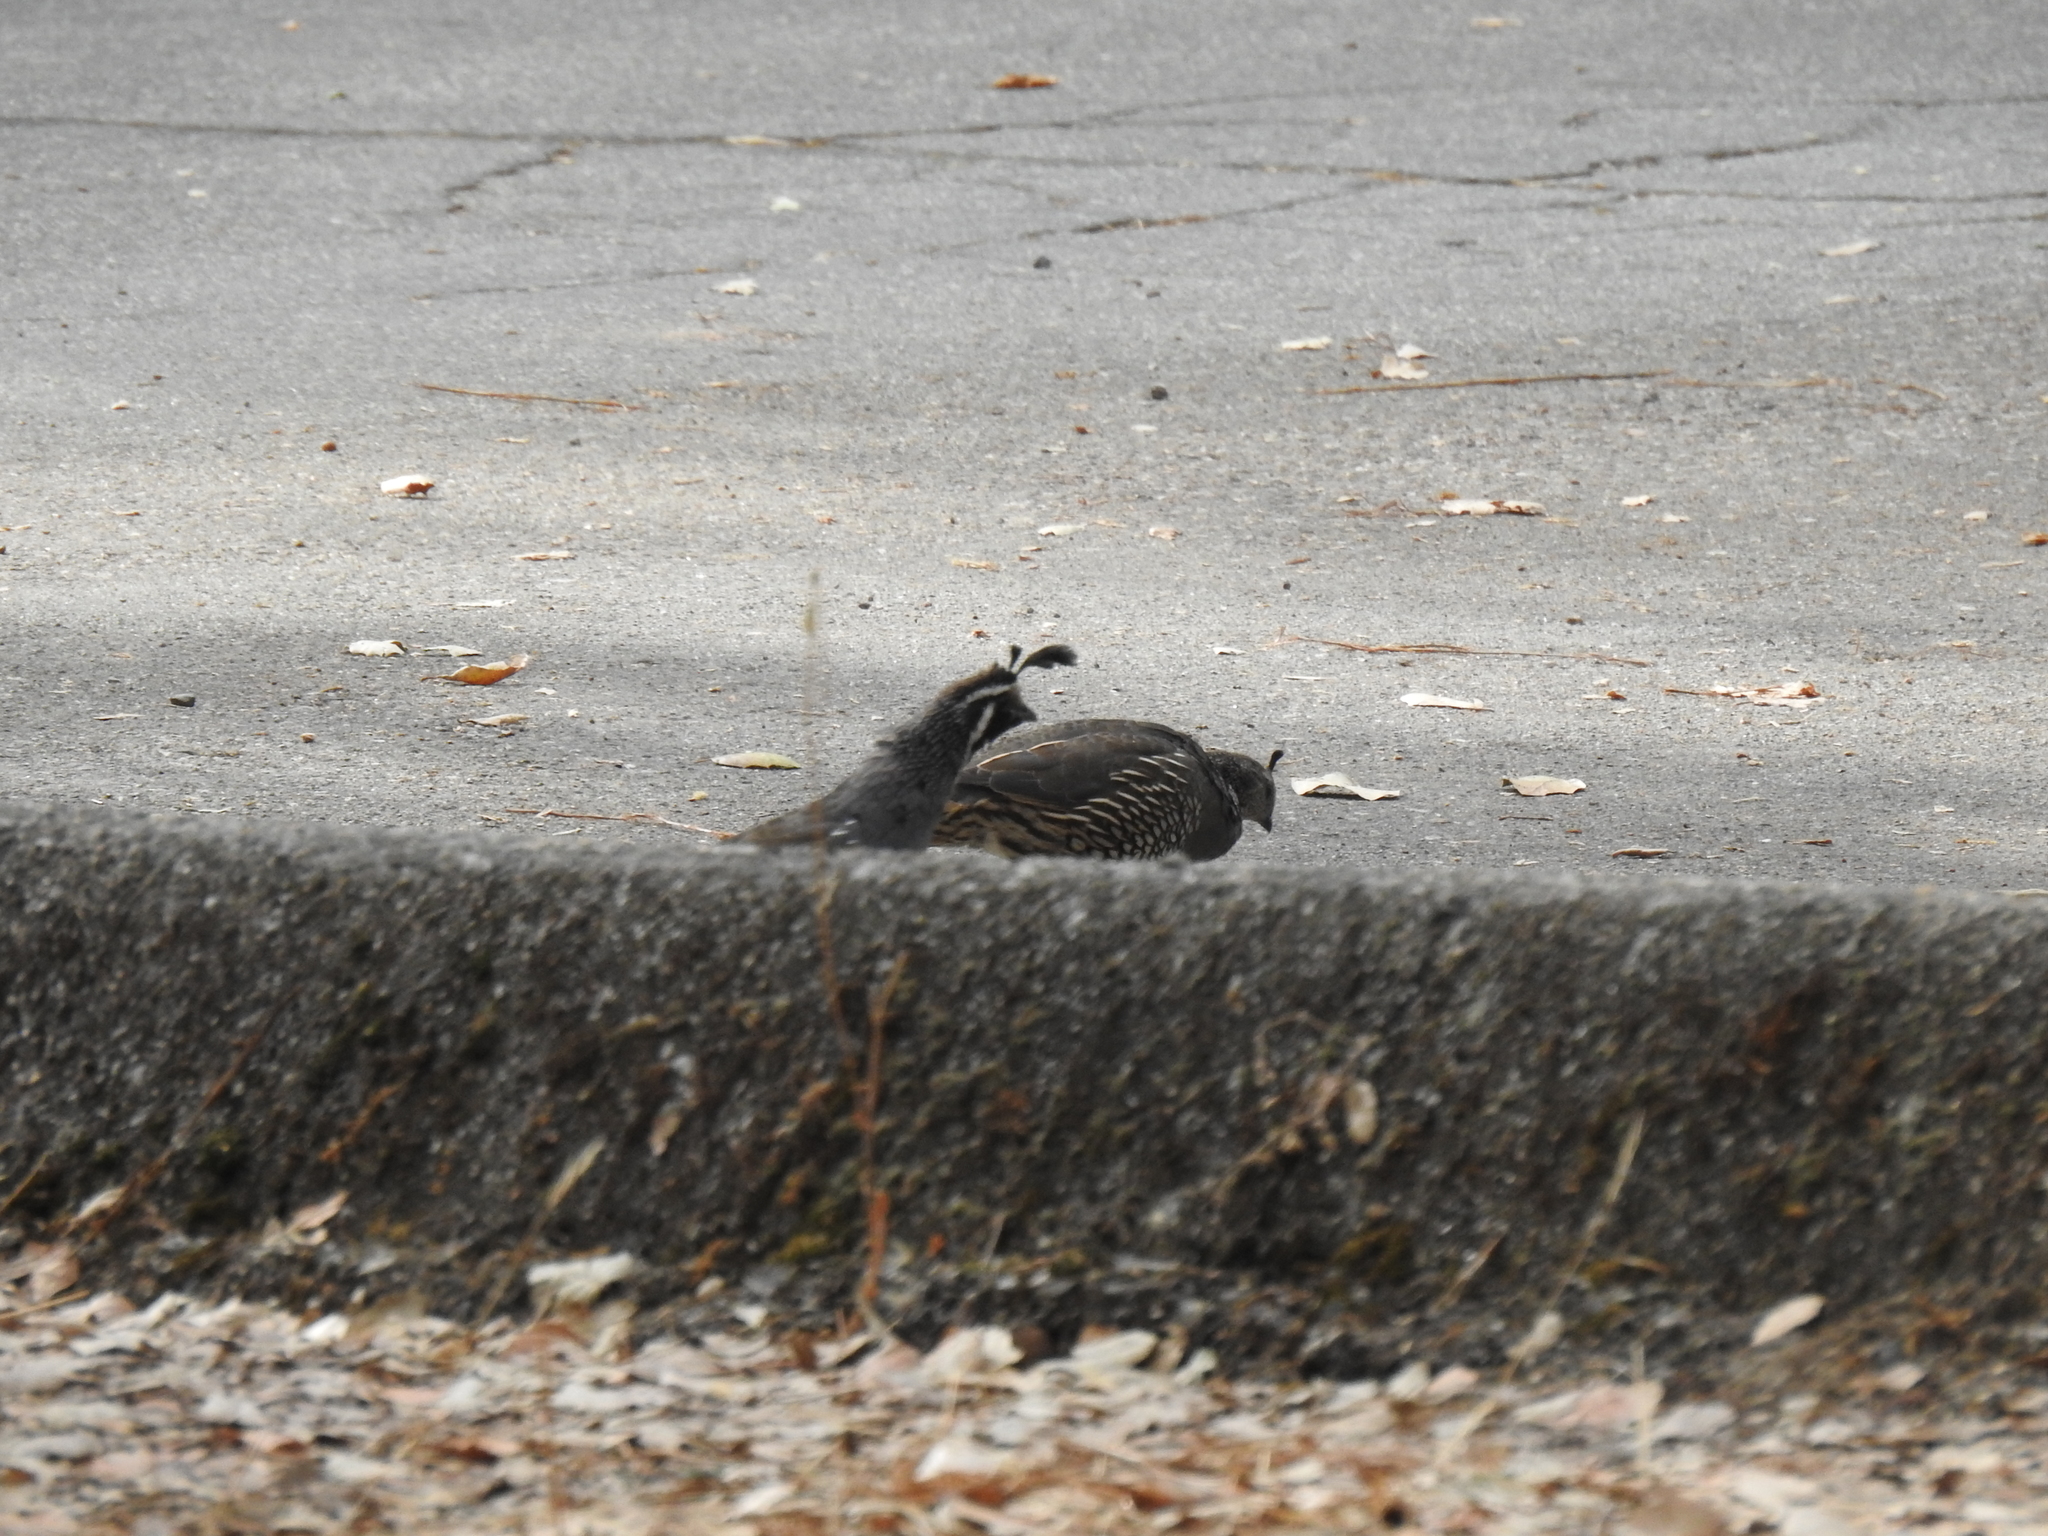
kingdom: Animalia
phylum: Chordata
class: Aves
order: Galliformes
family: Odontophoridae
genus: Callipepla
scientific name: Callipepla californica
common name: California quail
